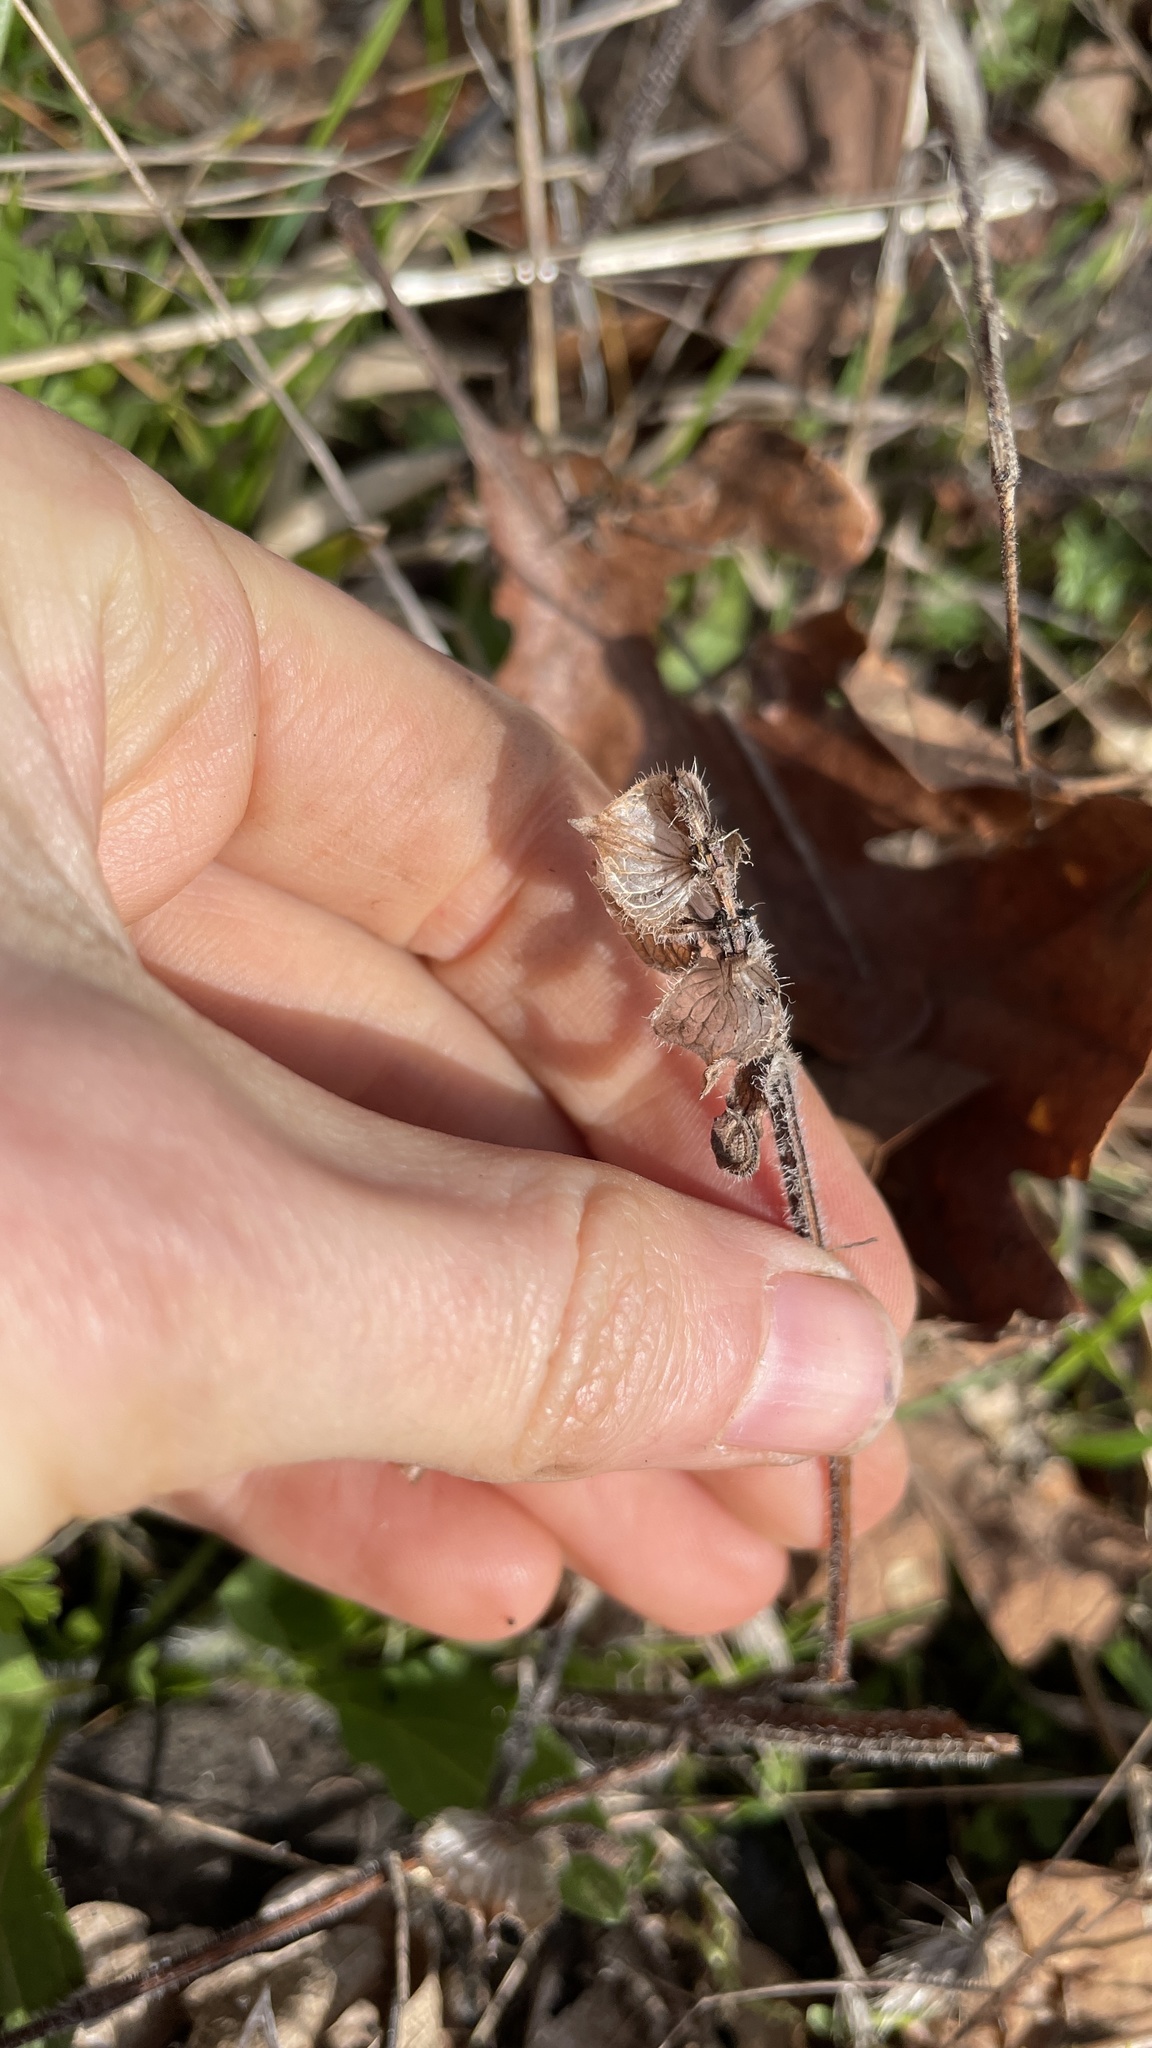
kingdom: Plantae
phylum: Tracheophyta
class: Magnoliopsida
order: Lamiales
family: Lamiaceae
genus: Prunella
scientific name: Prunella vulgaris
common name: Heal-all
